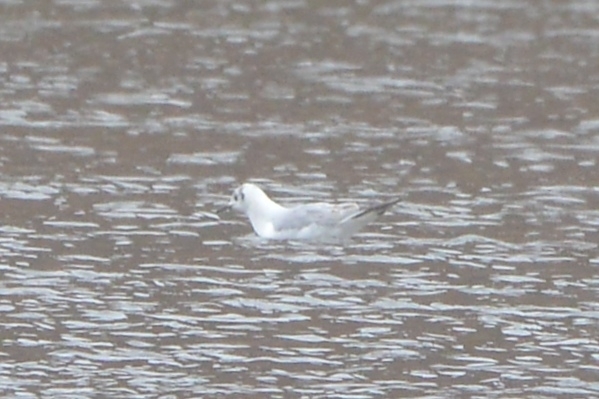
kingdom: Animalia
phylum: Chordata
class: Aves
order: Charadriiformes
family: Laridae
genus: Chroicocephalus
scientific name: Chroicocephalus ridibundus
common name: Black-headed gull
